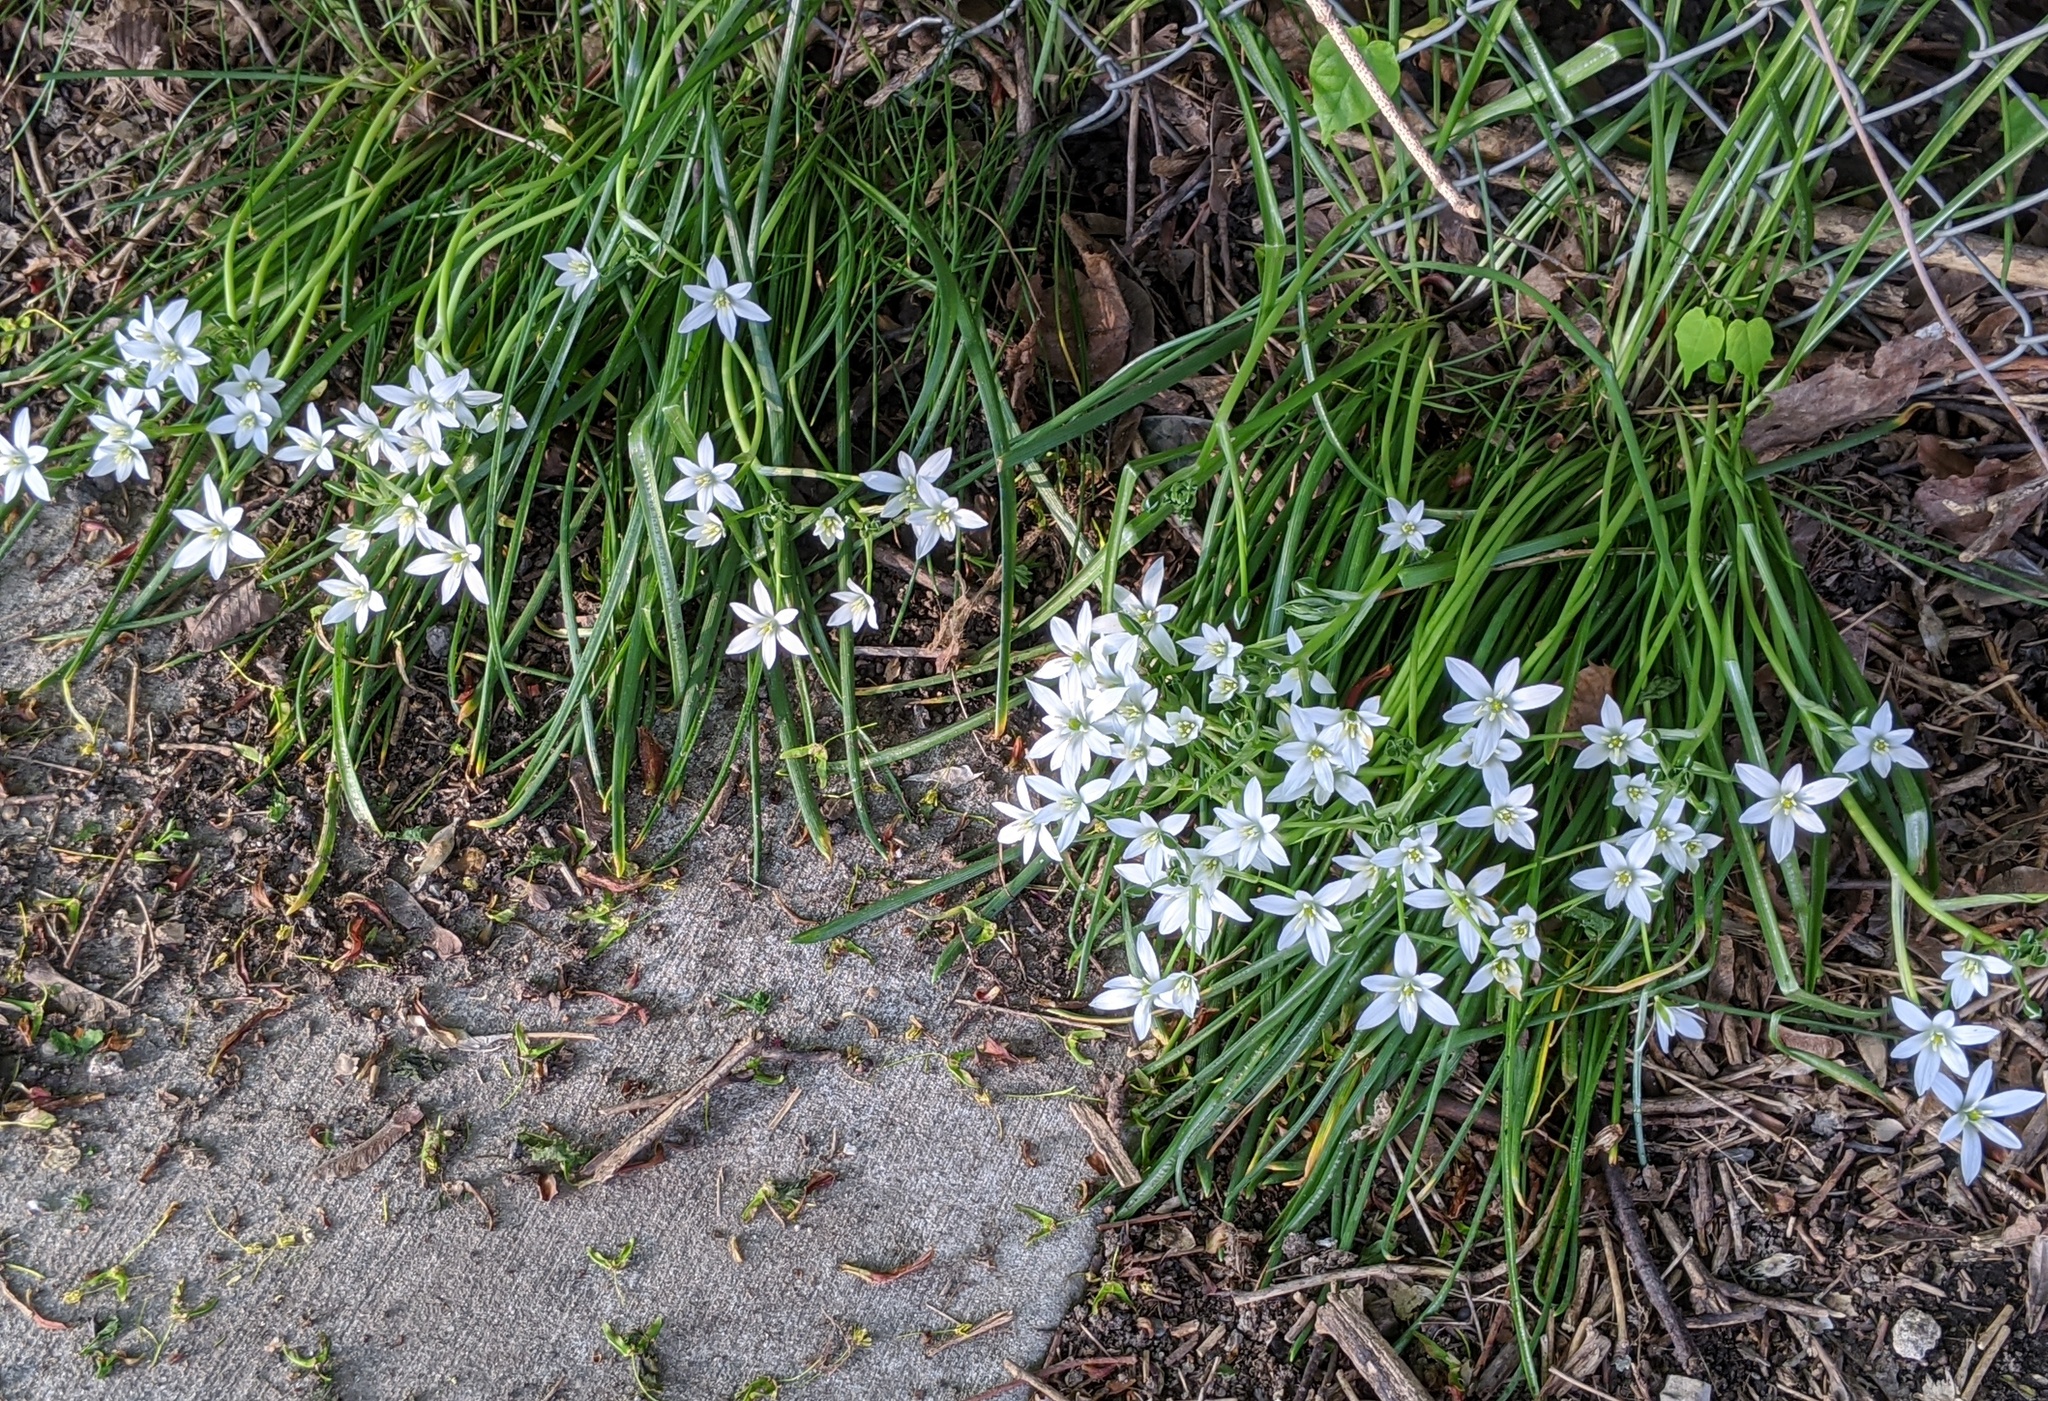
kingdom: Plantae
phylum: Tracheophyta
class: Liliopsida
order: Asparagales
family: Asparagaceae
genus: Ornithogalum
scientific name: Ornithogalum umbellatum
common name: Garden star-of-bethlehem
